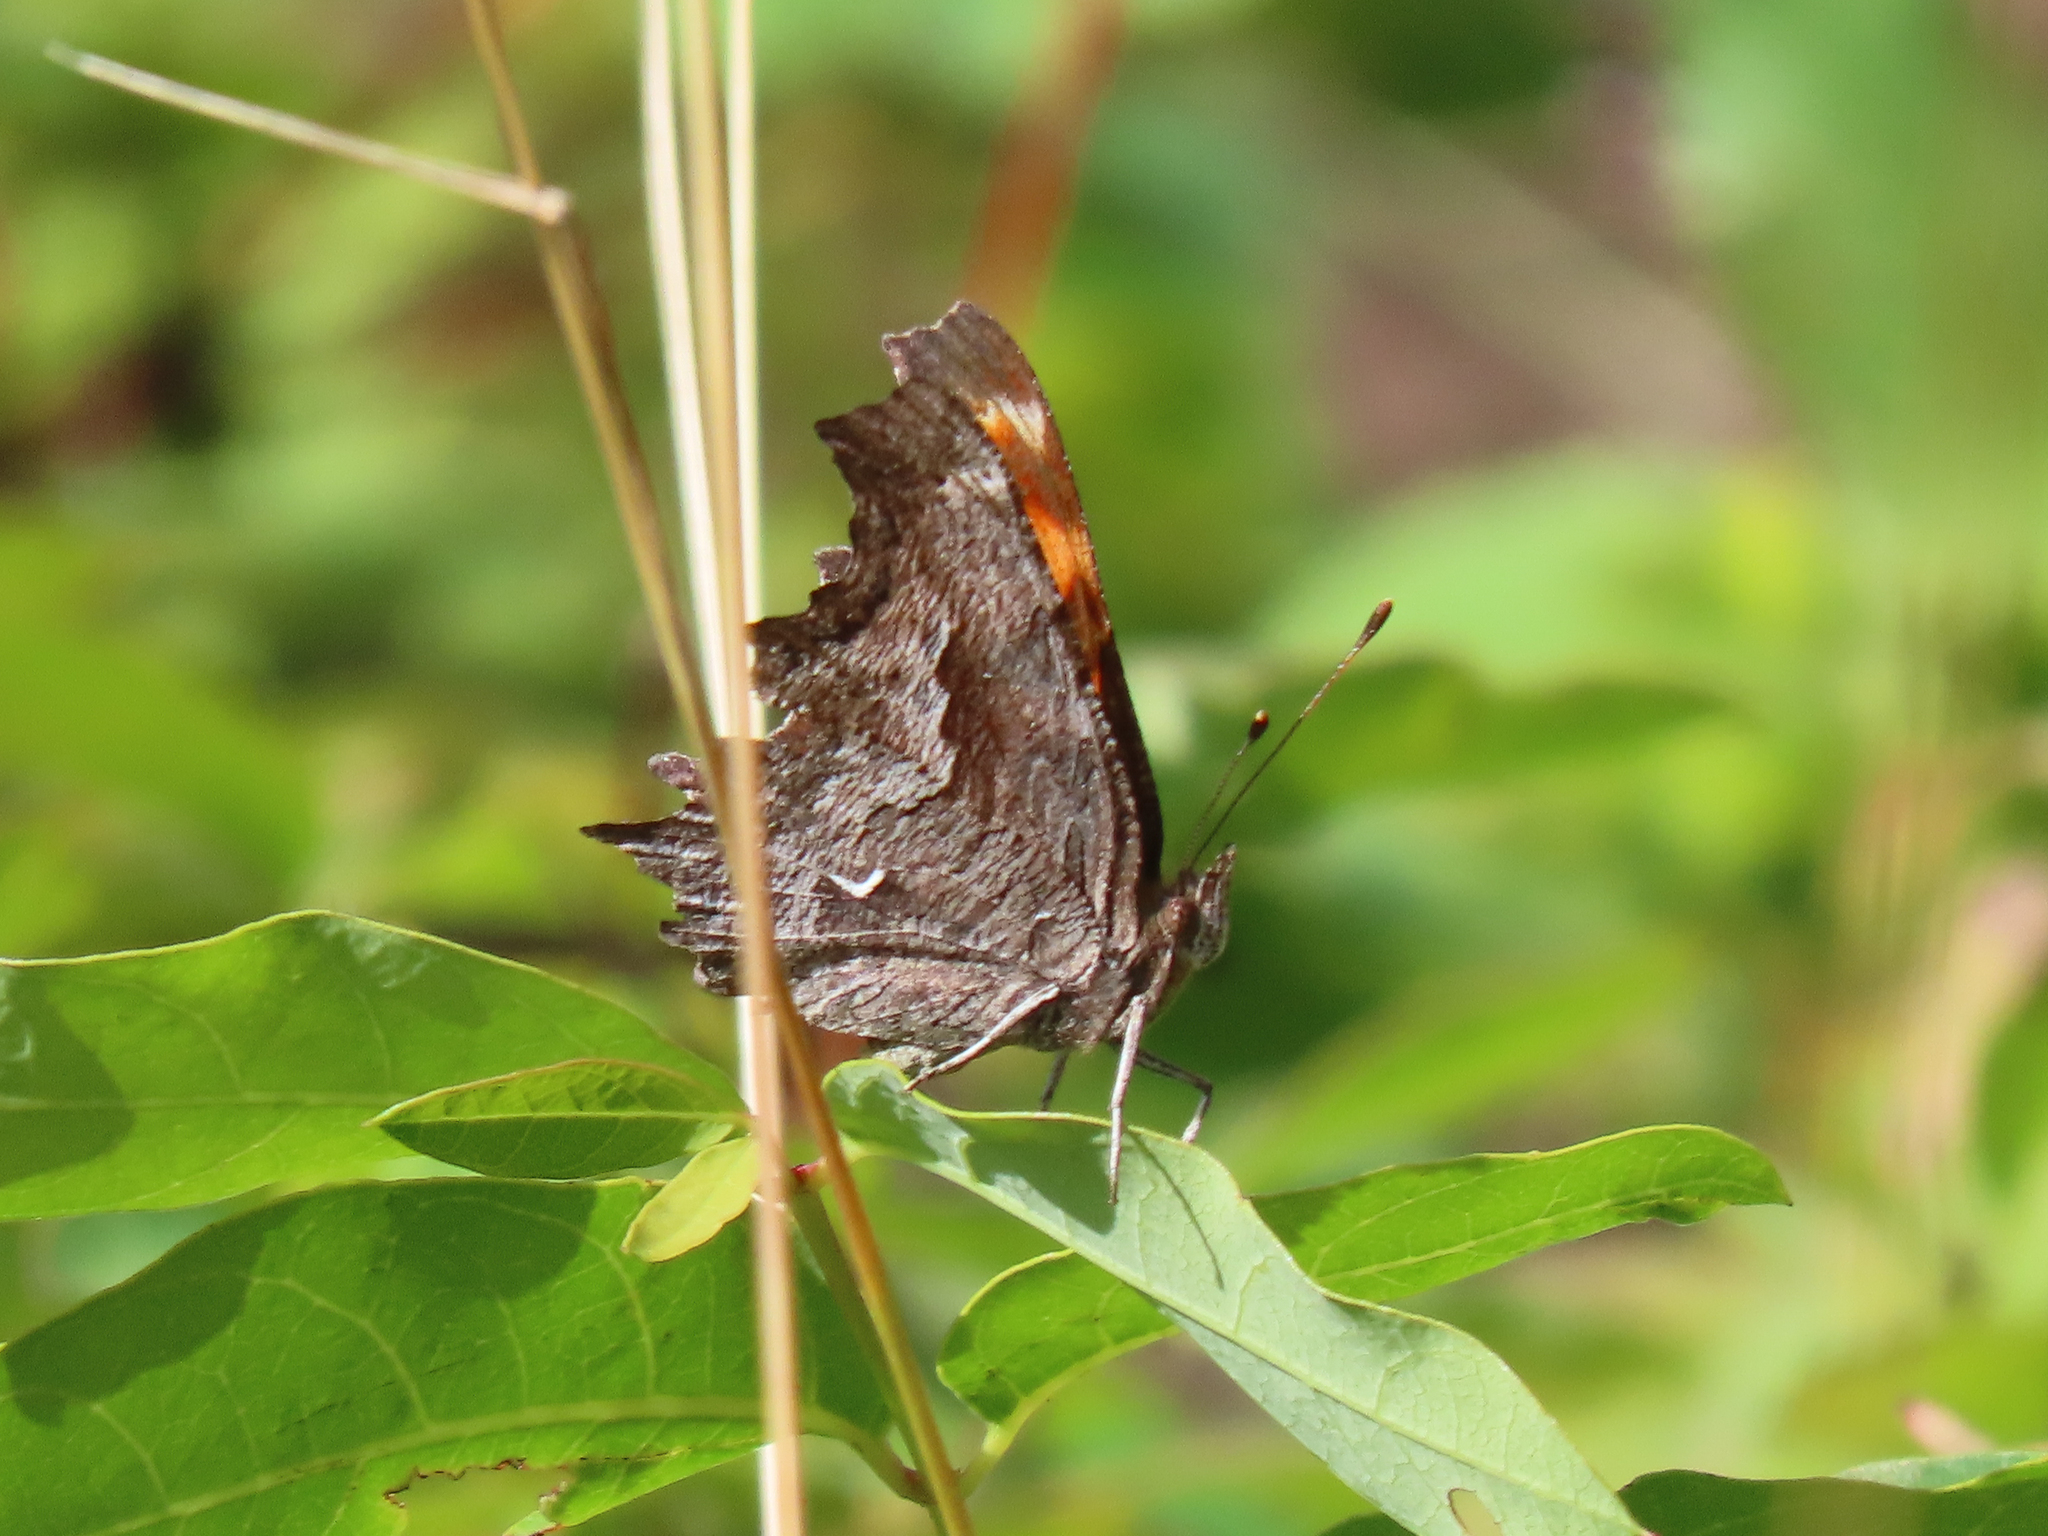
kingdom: Animalia
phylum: Arthropoda
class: Insecta
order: Lepidoptera
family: Nymphalidae
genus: Polygonia
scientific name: Polygonia gracilis
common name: Hoary comma
